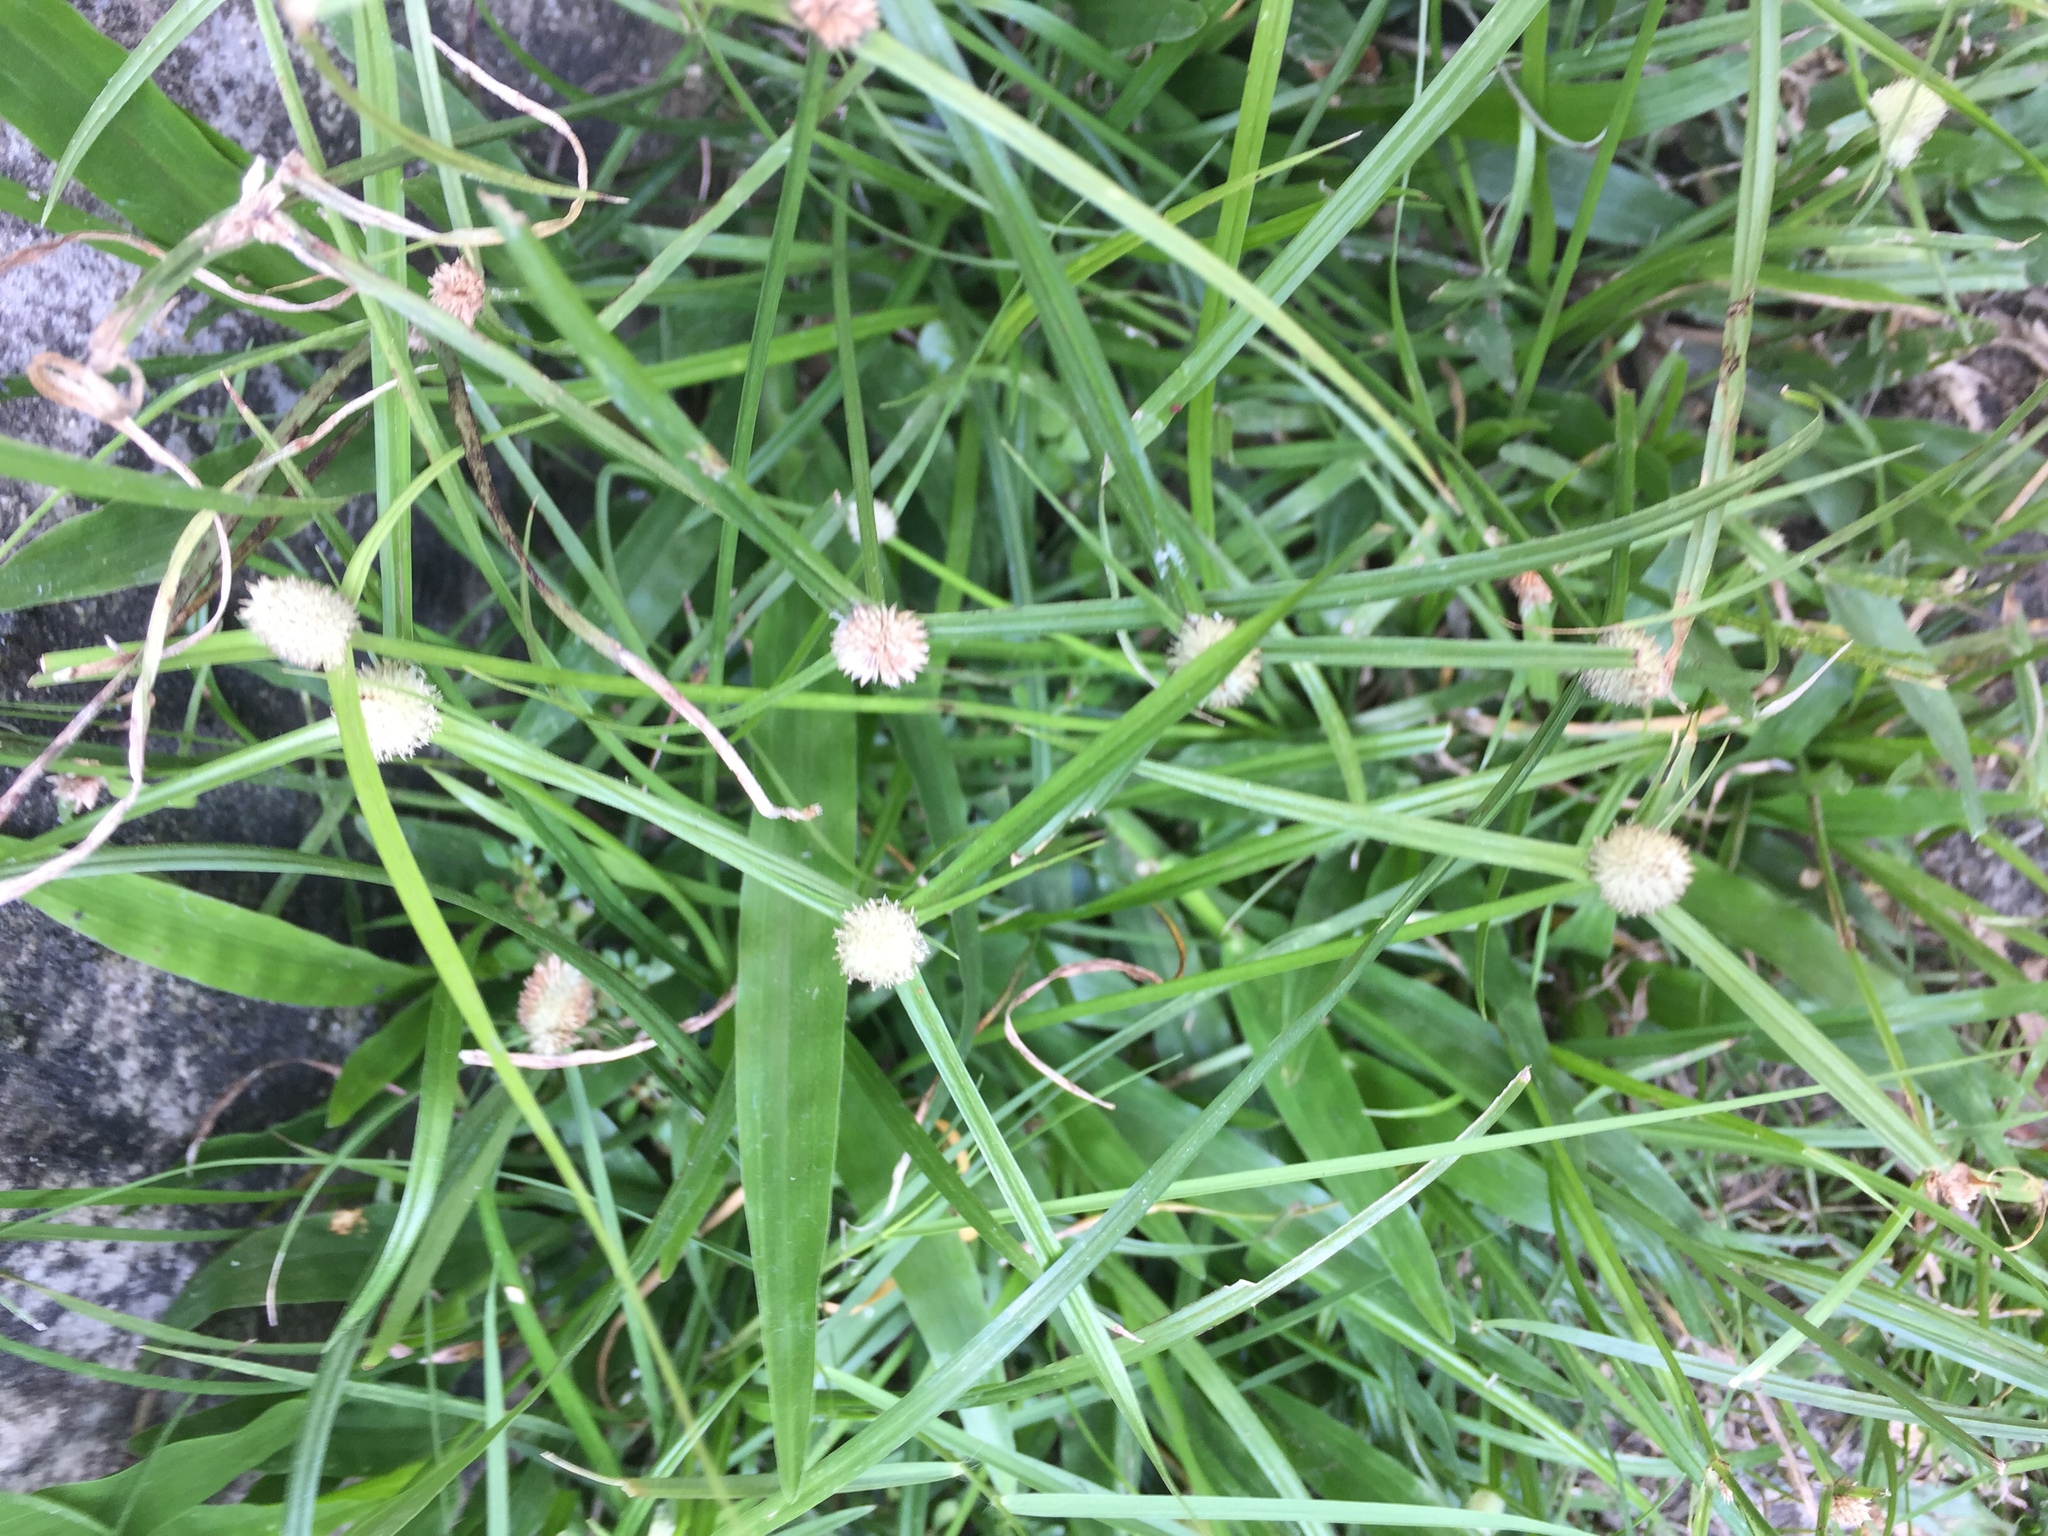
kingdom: Plantae
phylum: Tracheophyta
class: Liliopsida
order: Poales
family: Cyperaceae
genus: Cyperus
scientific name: Cyperus mindorensis
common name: Flatsedge
